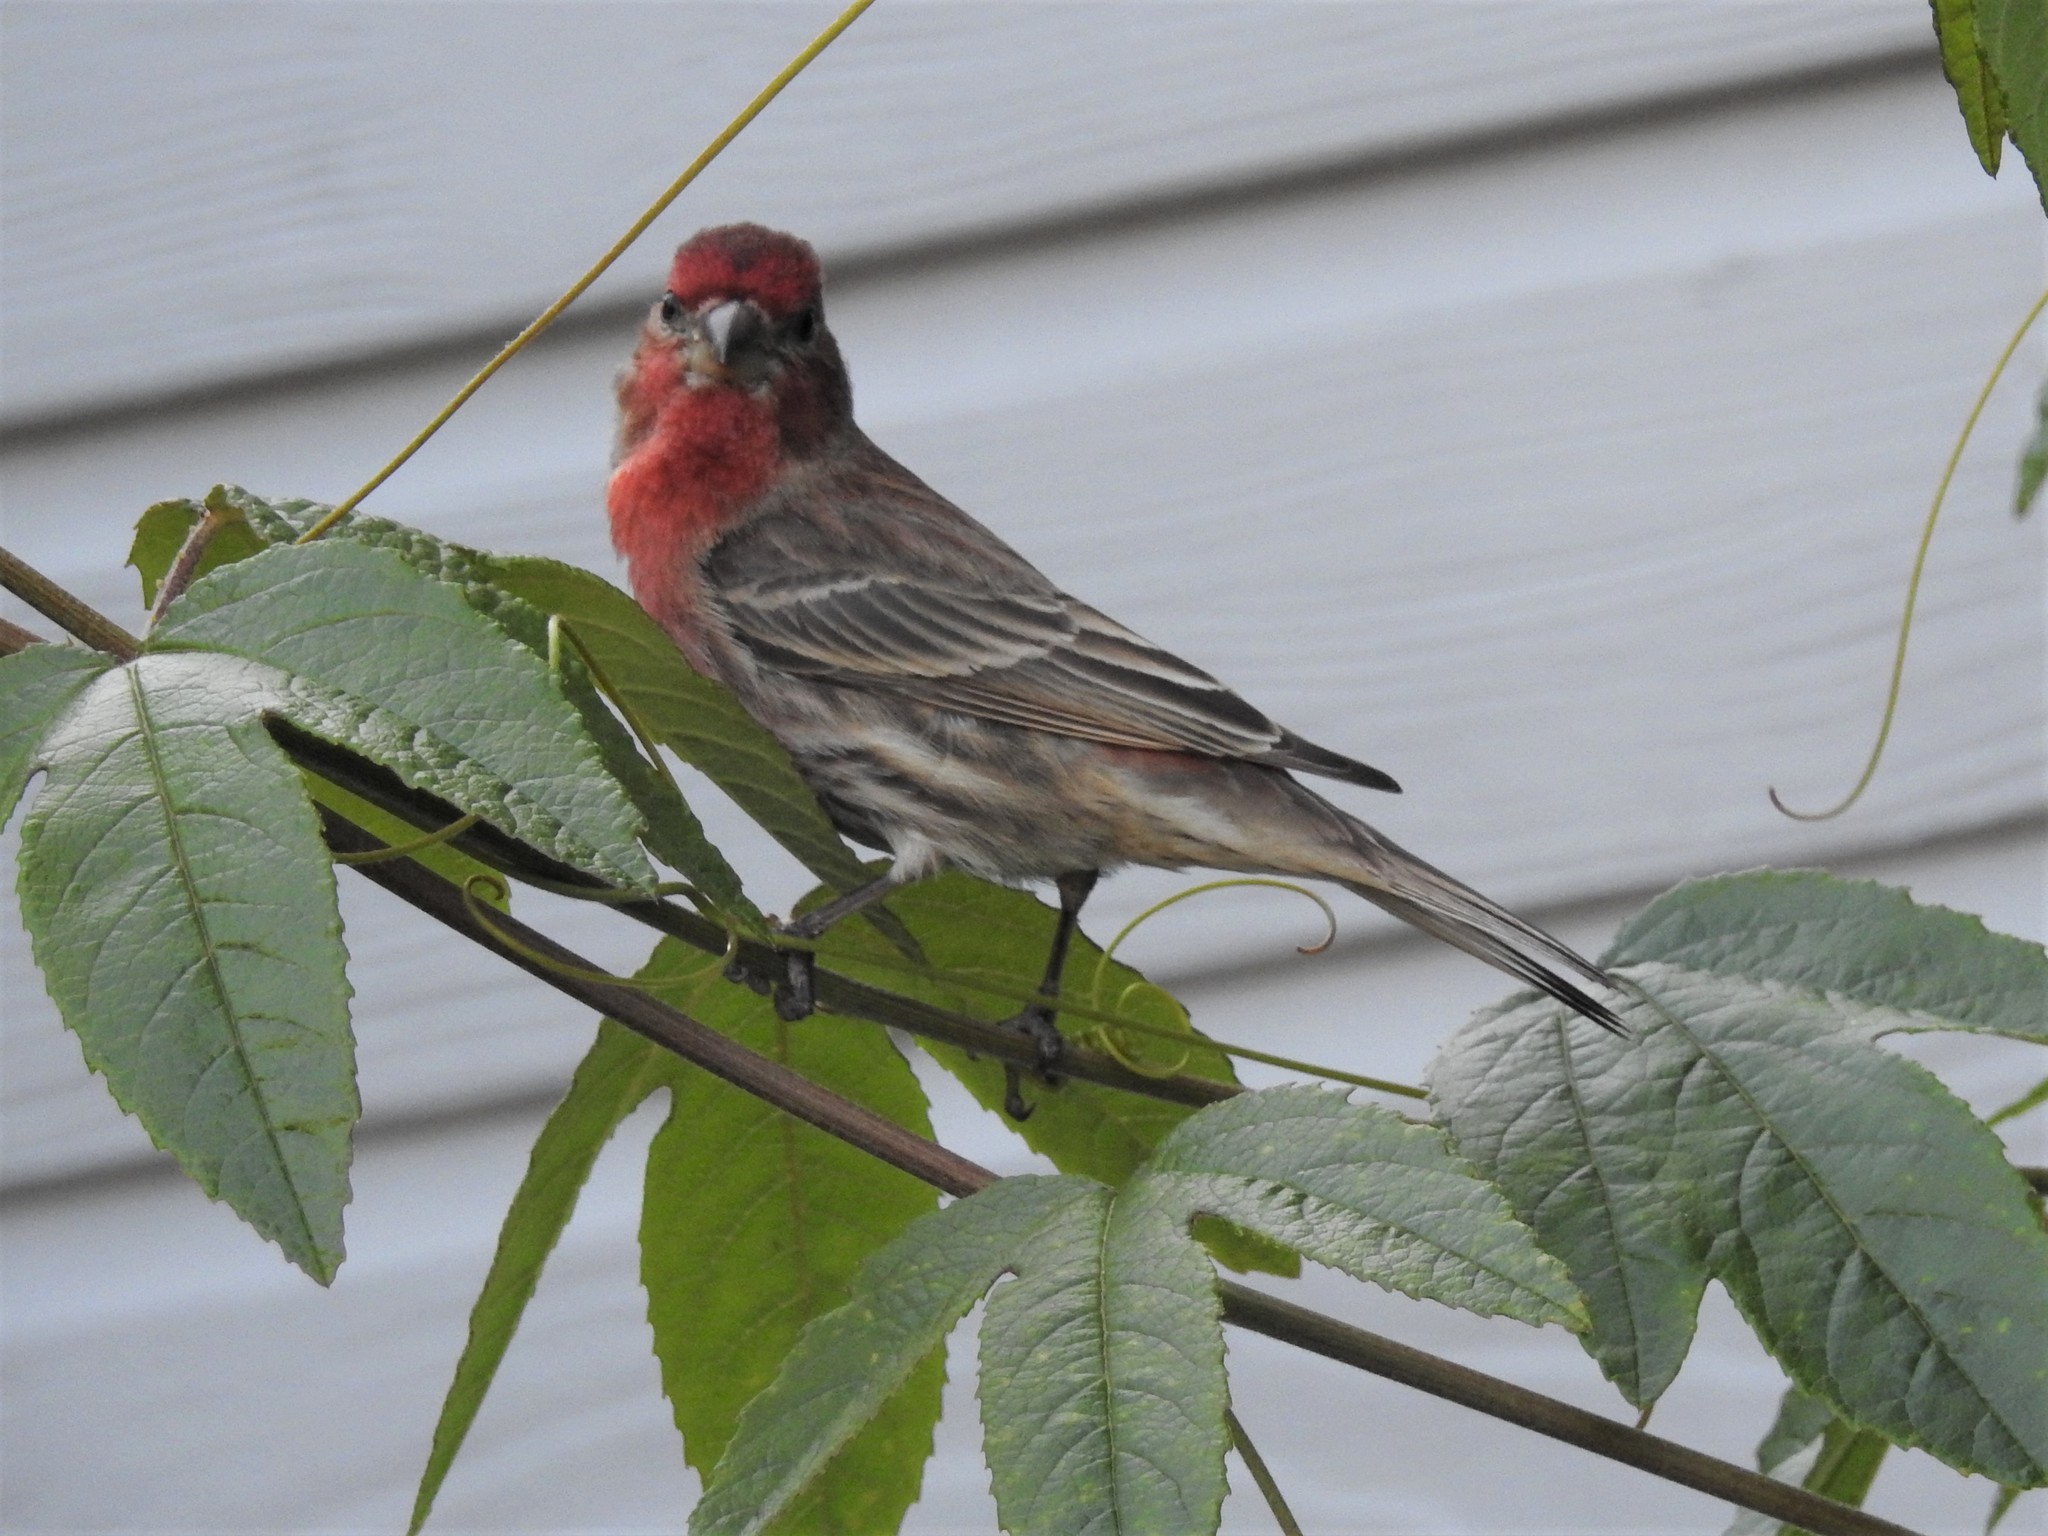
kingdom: Animalia
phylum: Chordata
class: Aves
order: Passeriformes
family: Fringillidae
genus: Haemorhous
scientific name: Haemorhous mexicanus
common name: House finch
